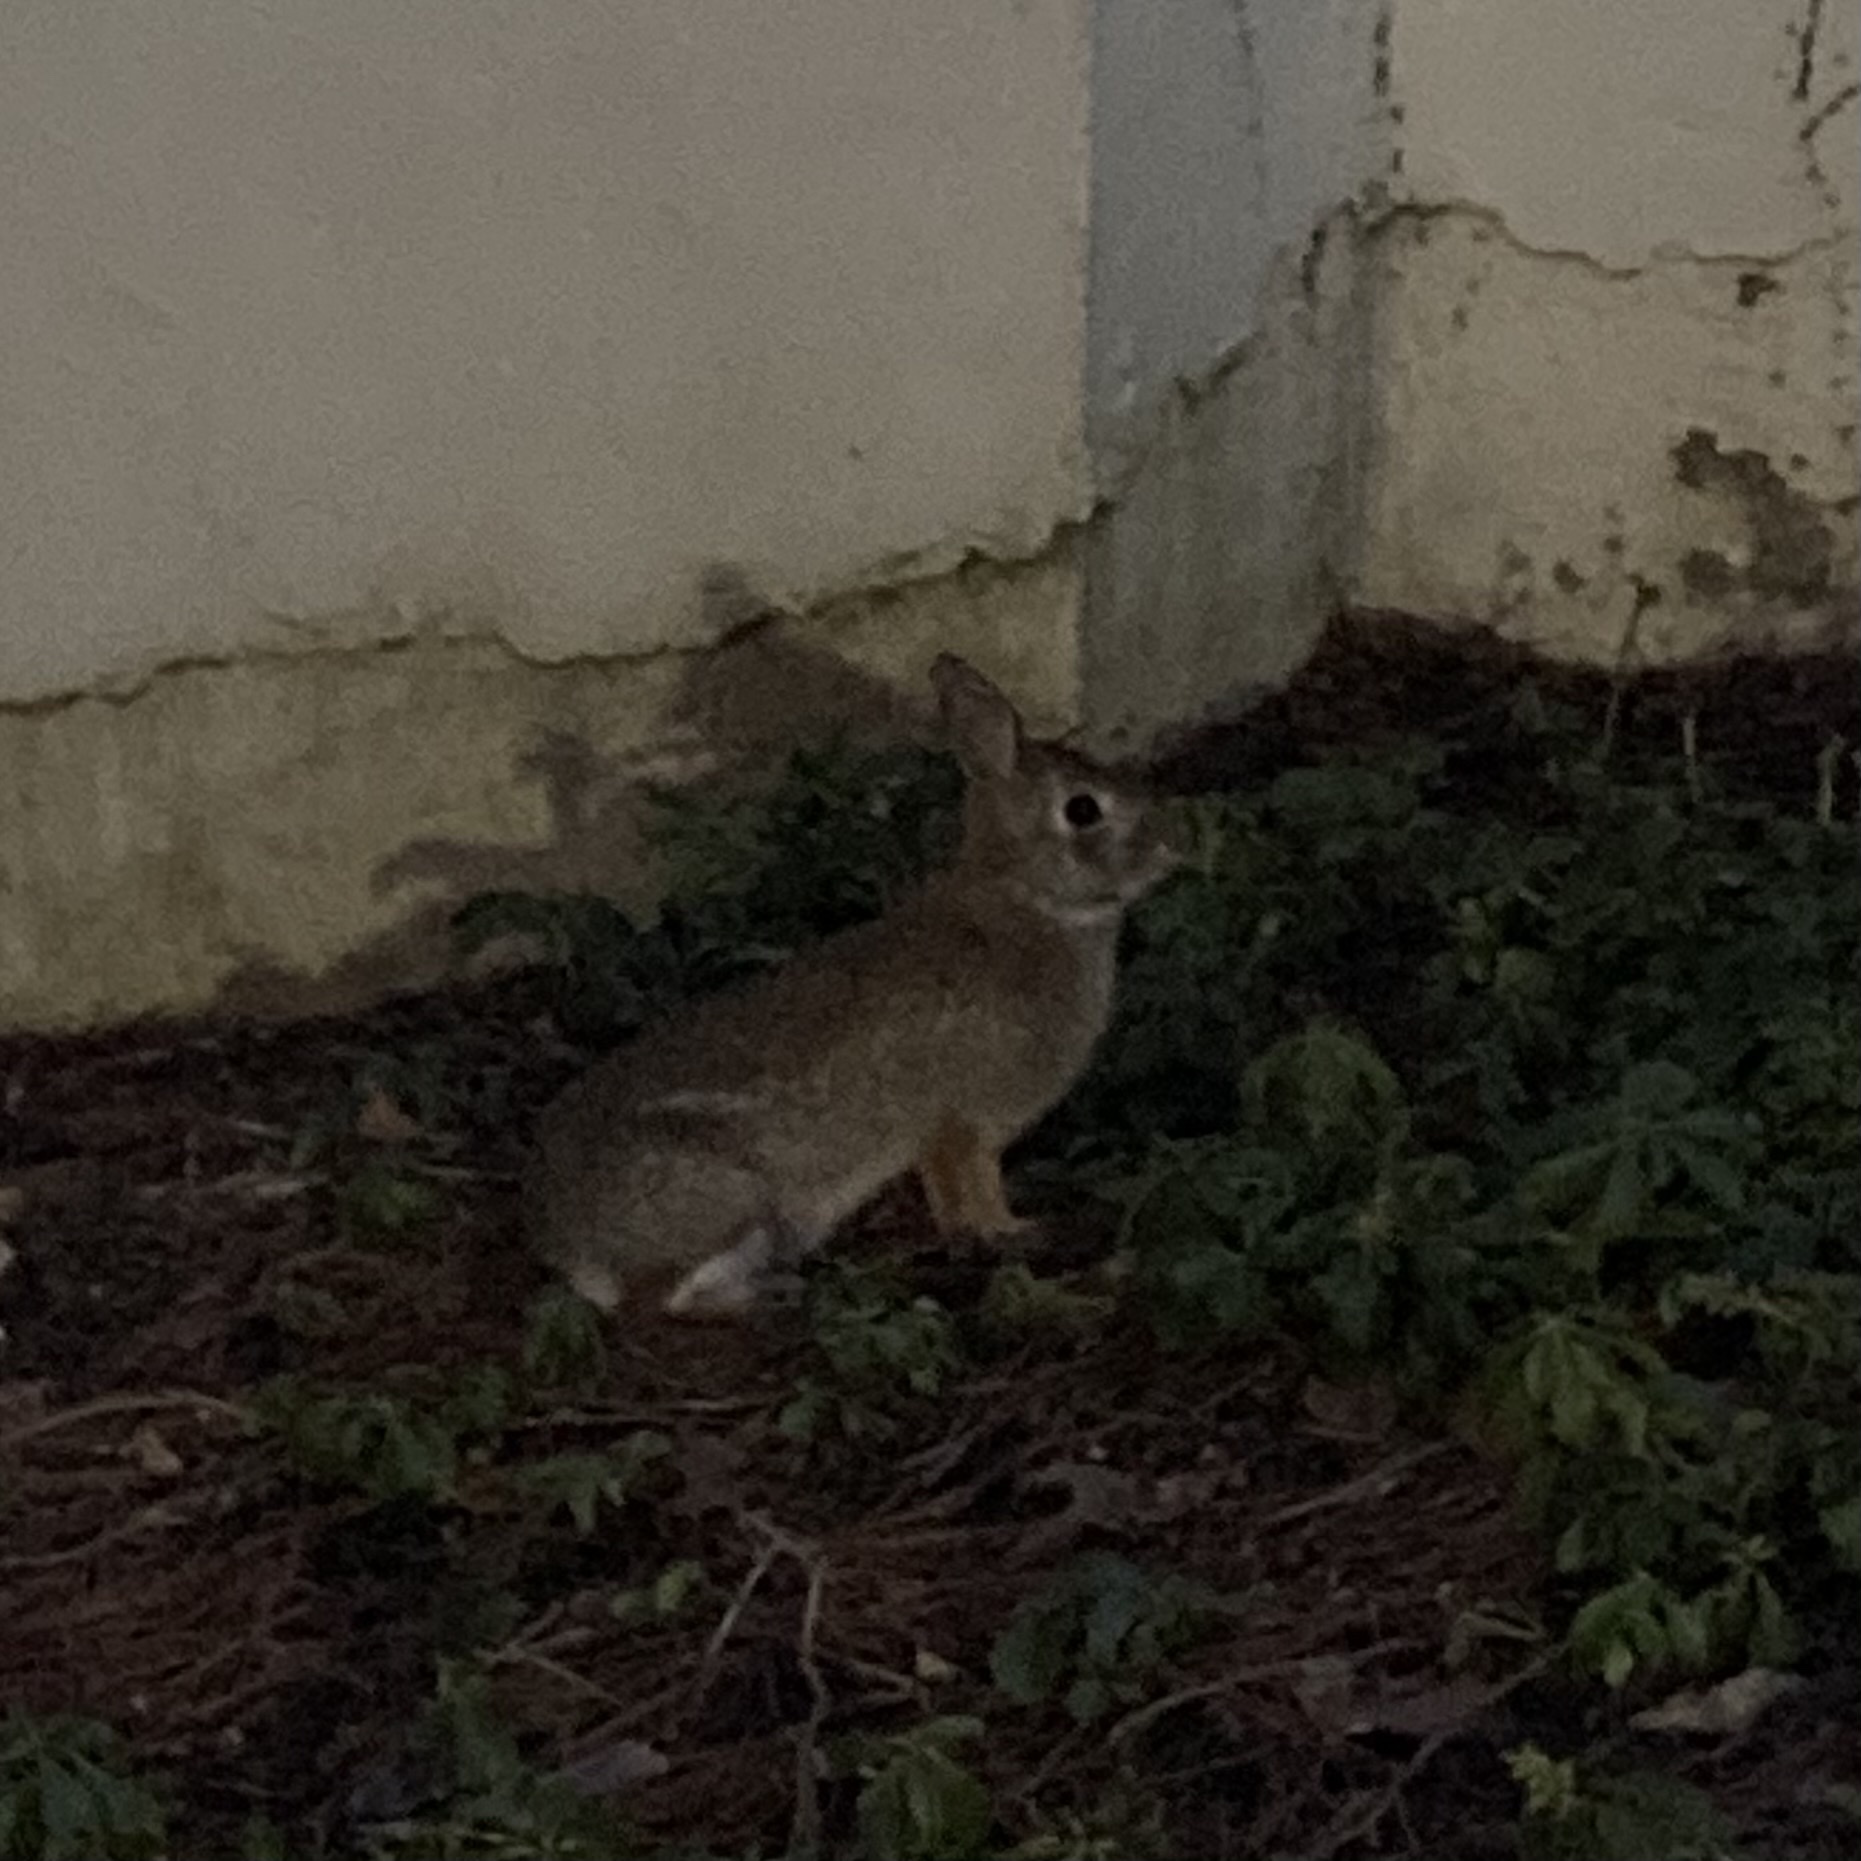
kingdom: Animalia
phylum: Chordata
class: Mammalia
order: Lagomorpha
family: Leporidae
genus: Sylvilagus
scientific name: Sylvilagus floridanus
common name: Eastern cottontail
